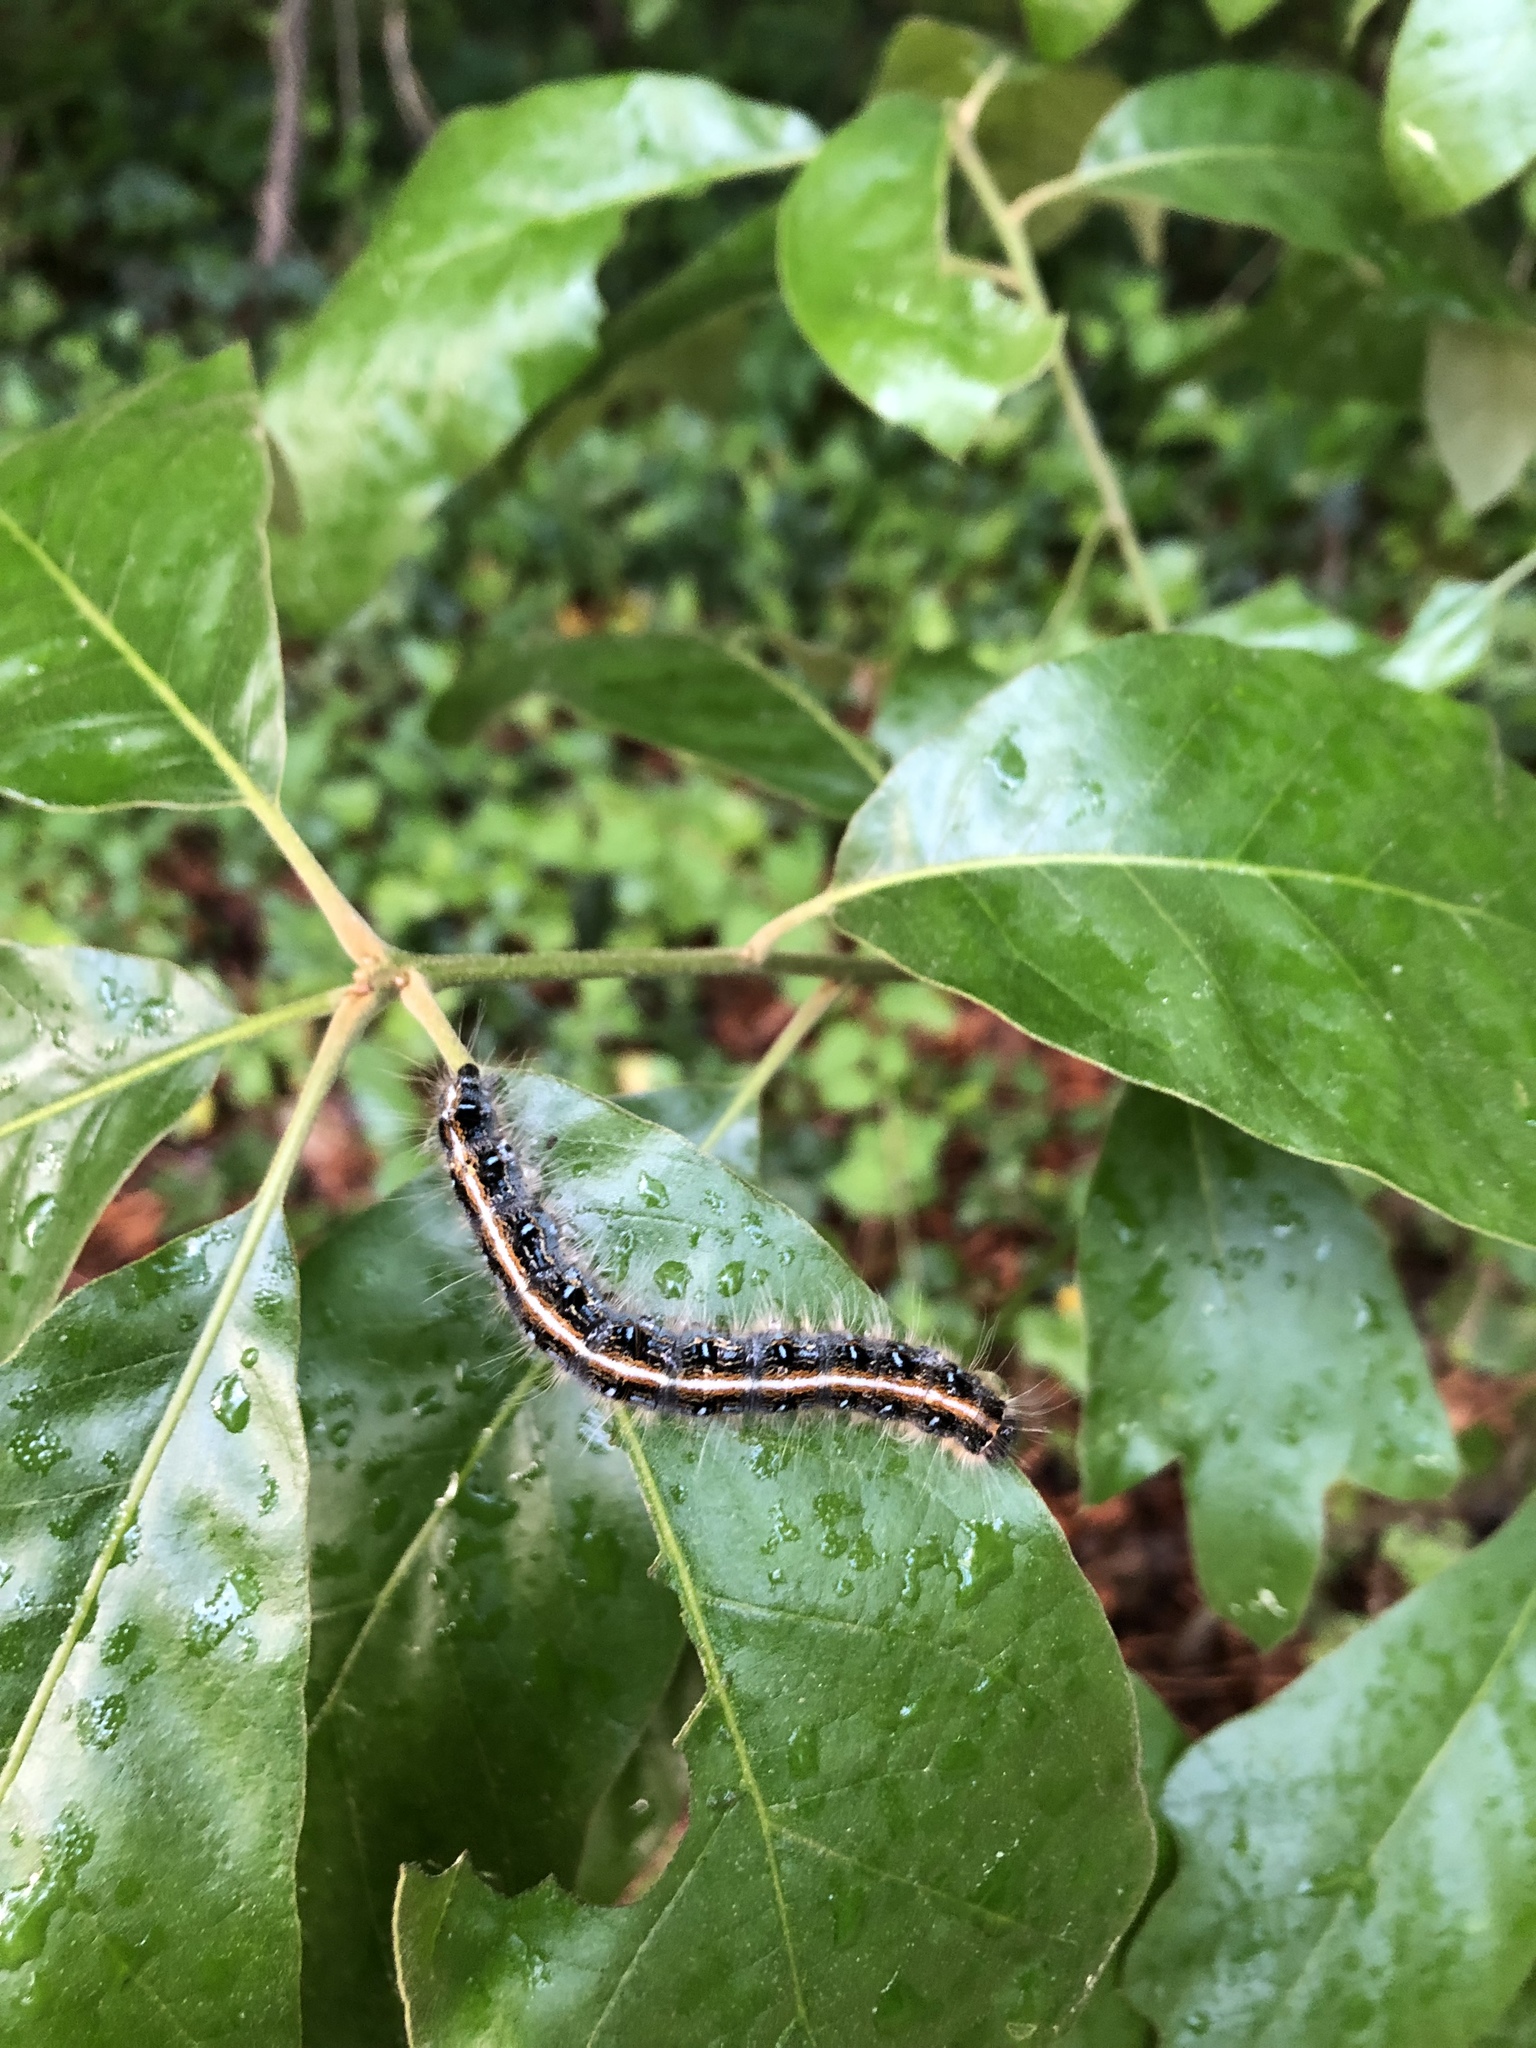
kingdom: Animalia
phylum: Arthropoda
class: Insecta
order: Lepidoptera
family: Lasiocampidae
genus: Malacosoma
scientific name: Malacosoma americana
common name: Eastern tent caterpillar moth
